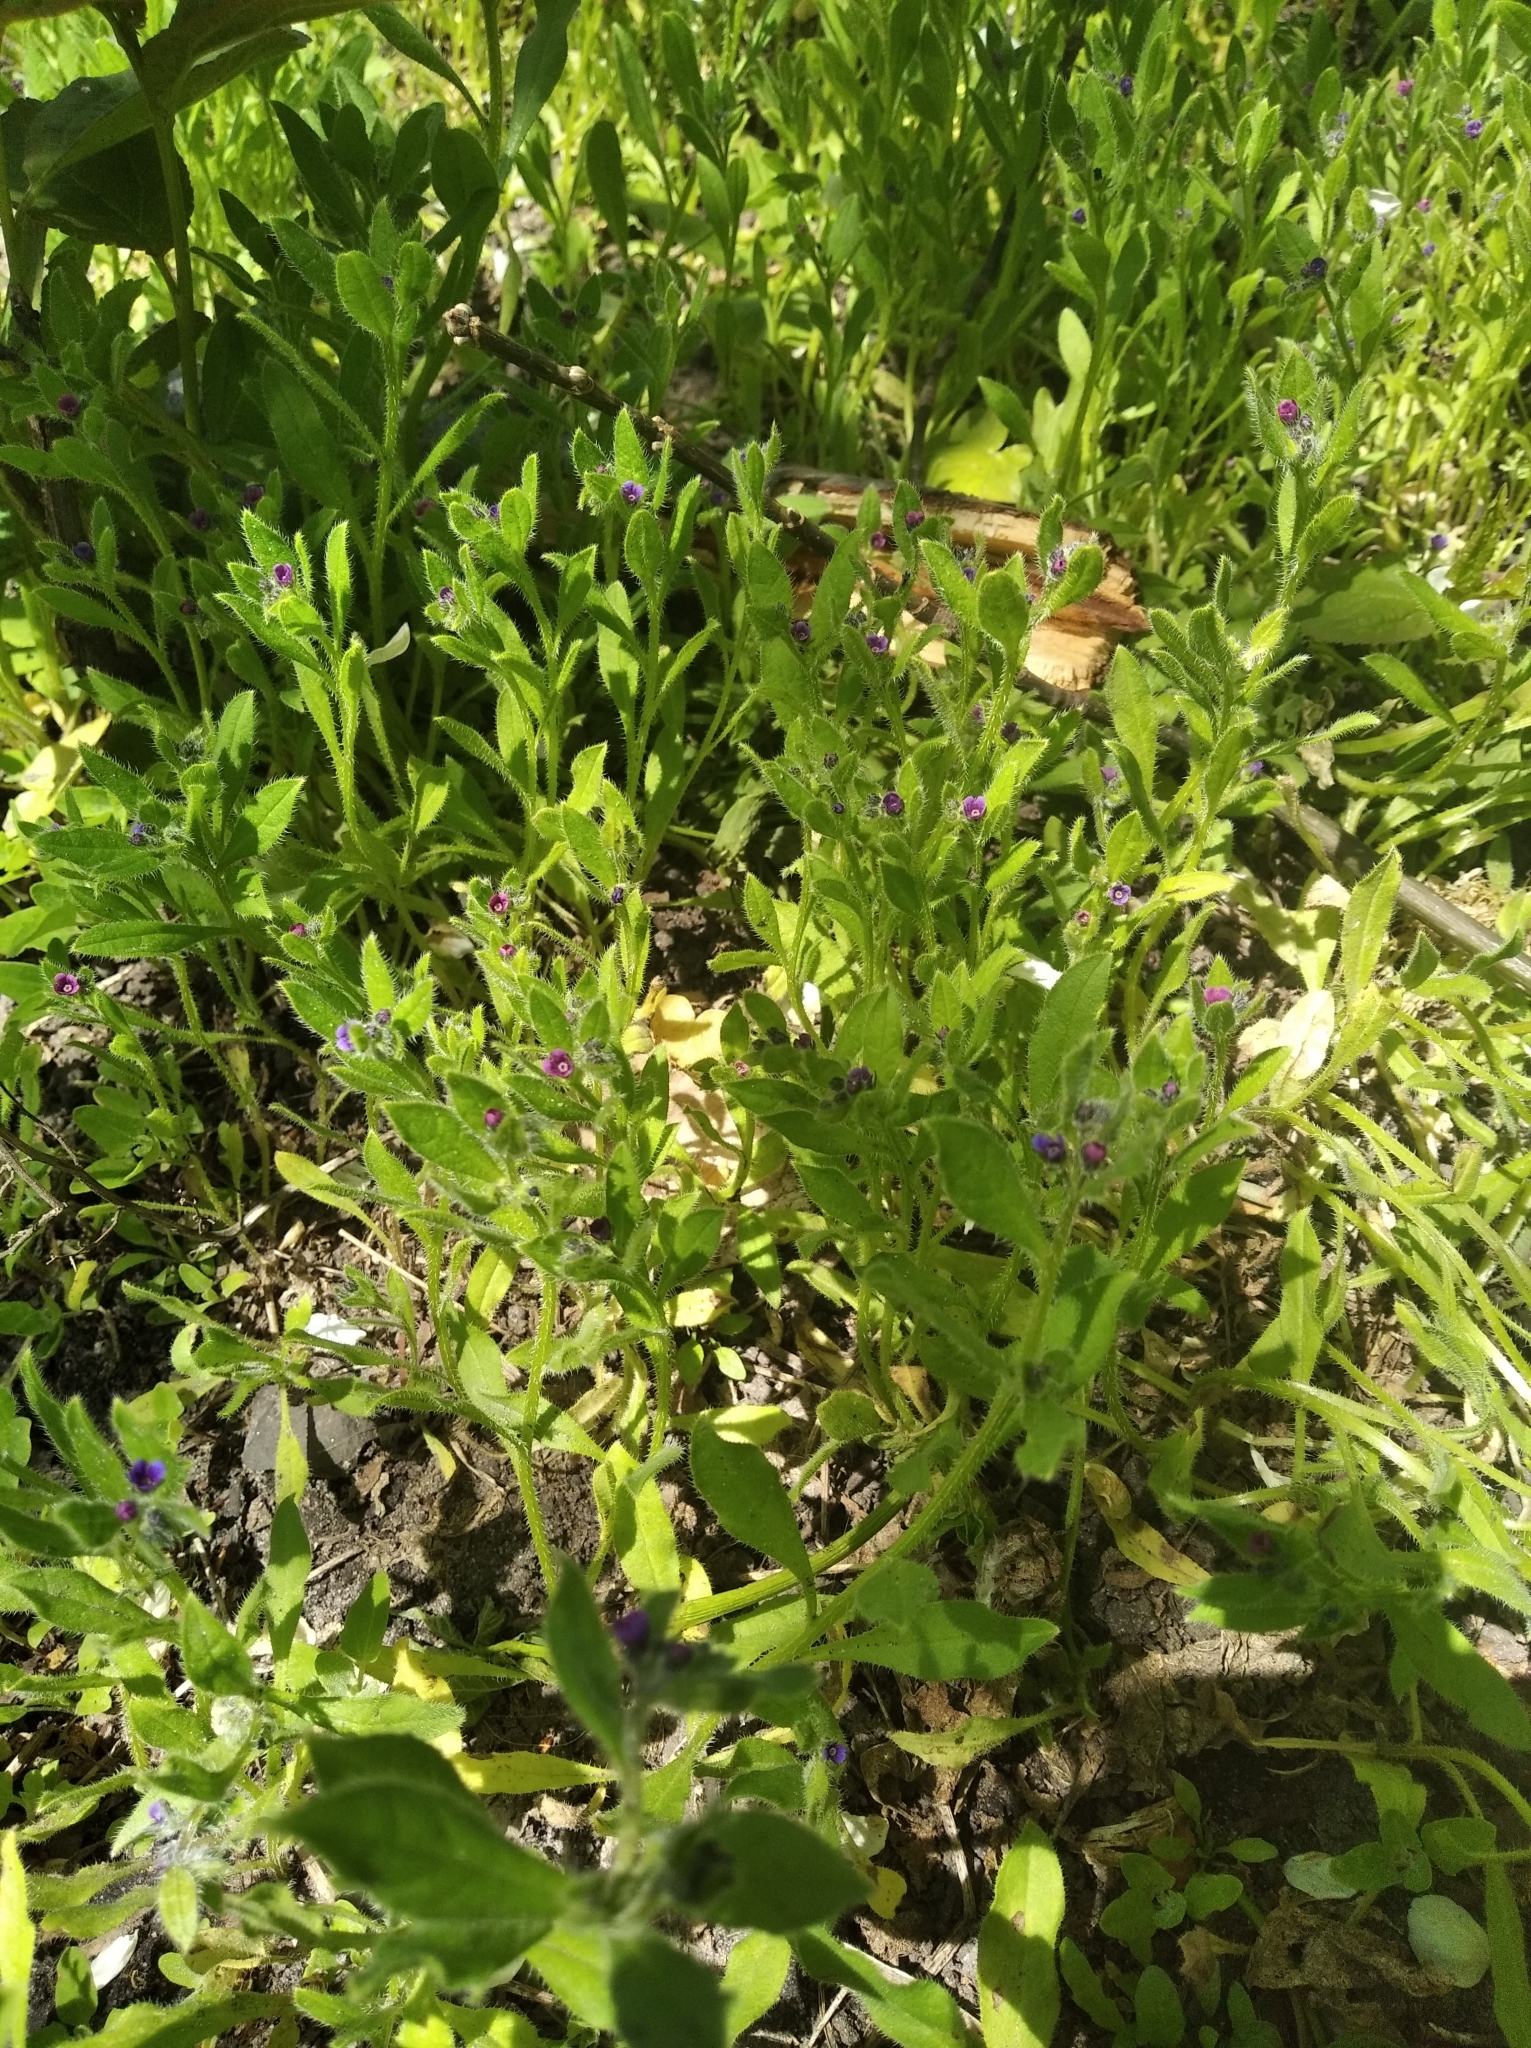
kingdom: Plantae
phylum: Tracheophyta
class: Magnoliopsida
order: Boraginales
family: Boraginaceae
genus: Asperugo
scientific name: Asperugo procumbens
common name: Madwort
